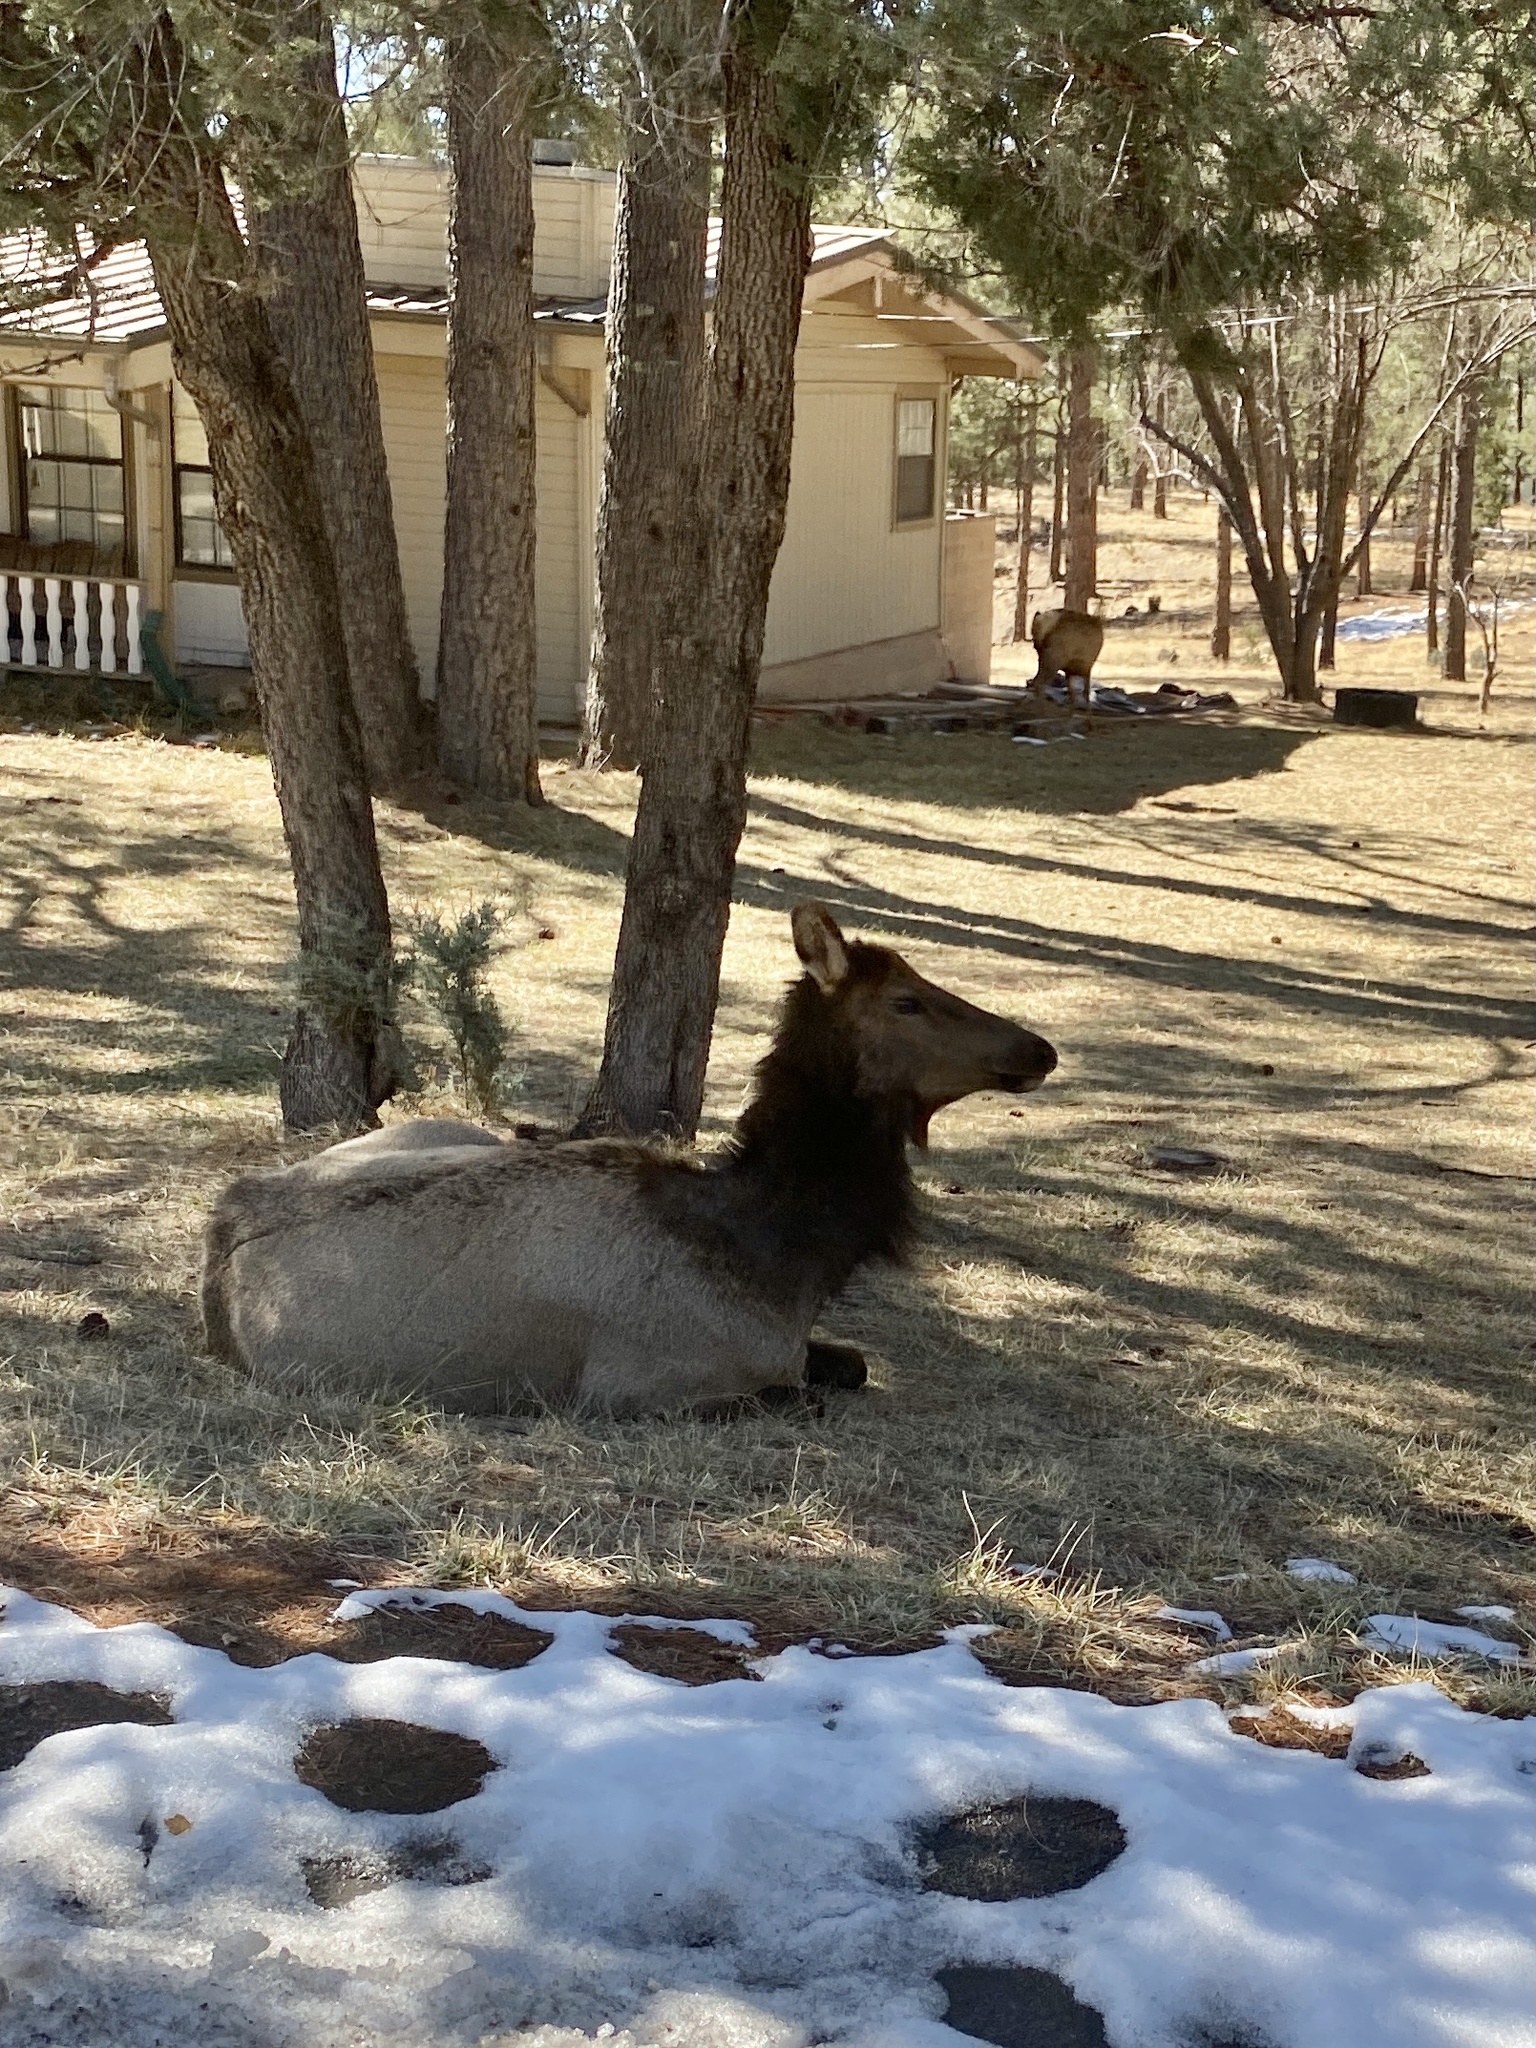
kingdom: Animalia
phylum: Chordata
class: Mammalia
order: Artiodactyla
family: Cervidae
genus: Cervus
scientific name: Cervus elaphus
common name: Red deer
